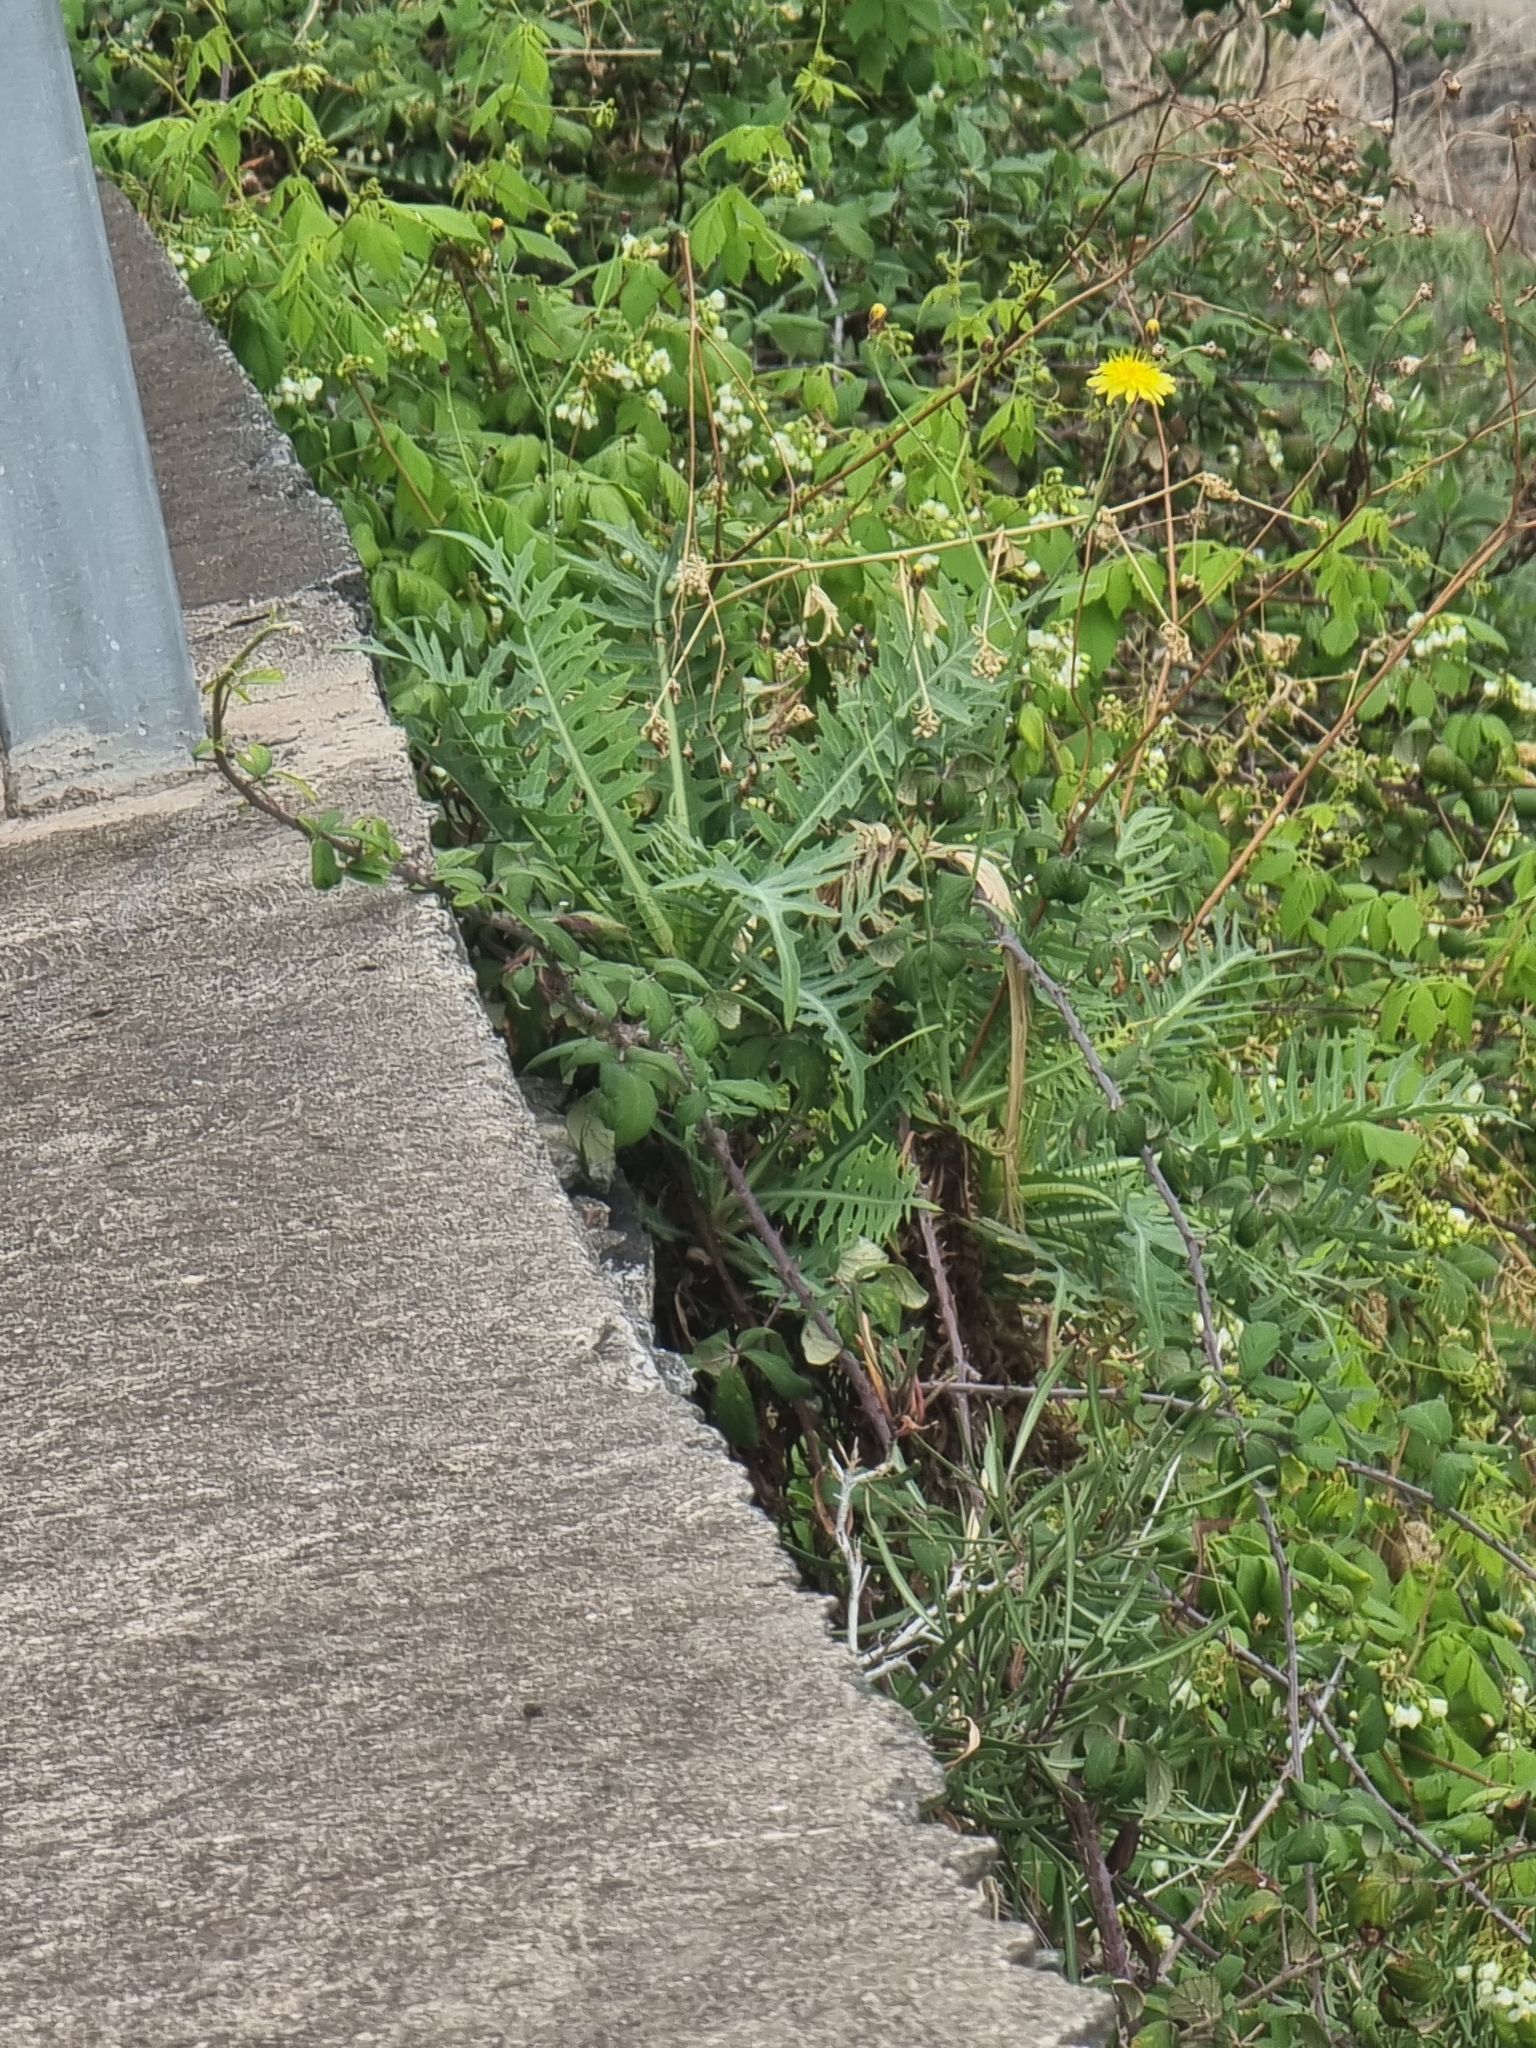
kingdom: Plantae
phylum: Tracheophyta
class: Magnoliopsida
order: Asterales
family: Asteraceae
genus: Sonchus
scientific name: Sonchus ustulatus
